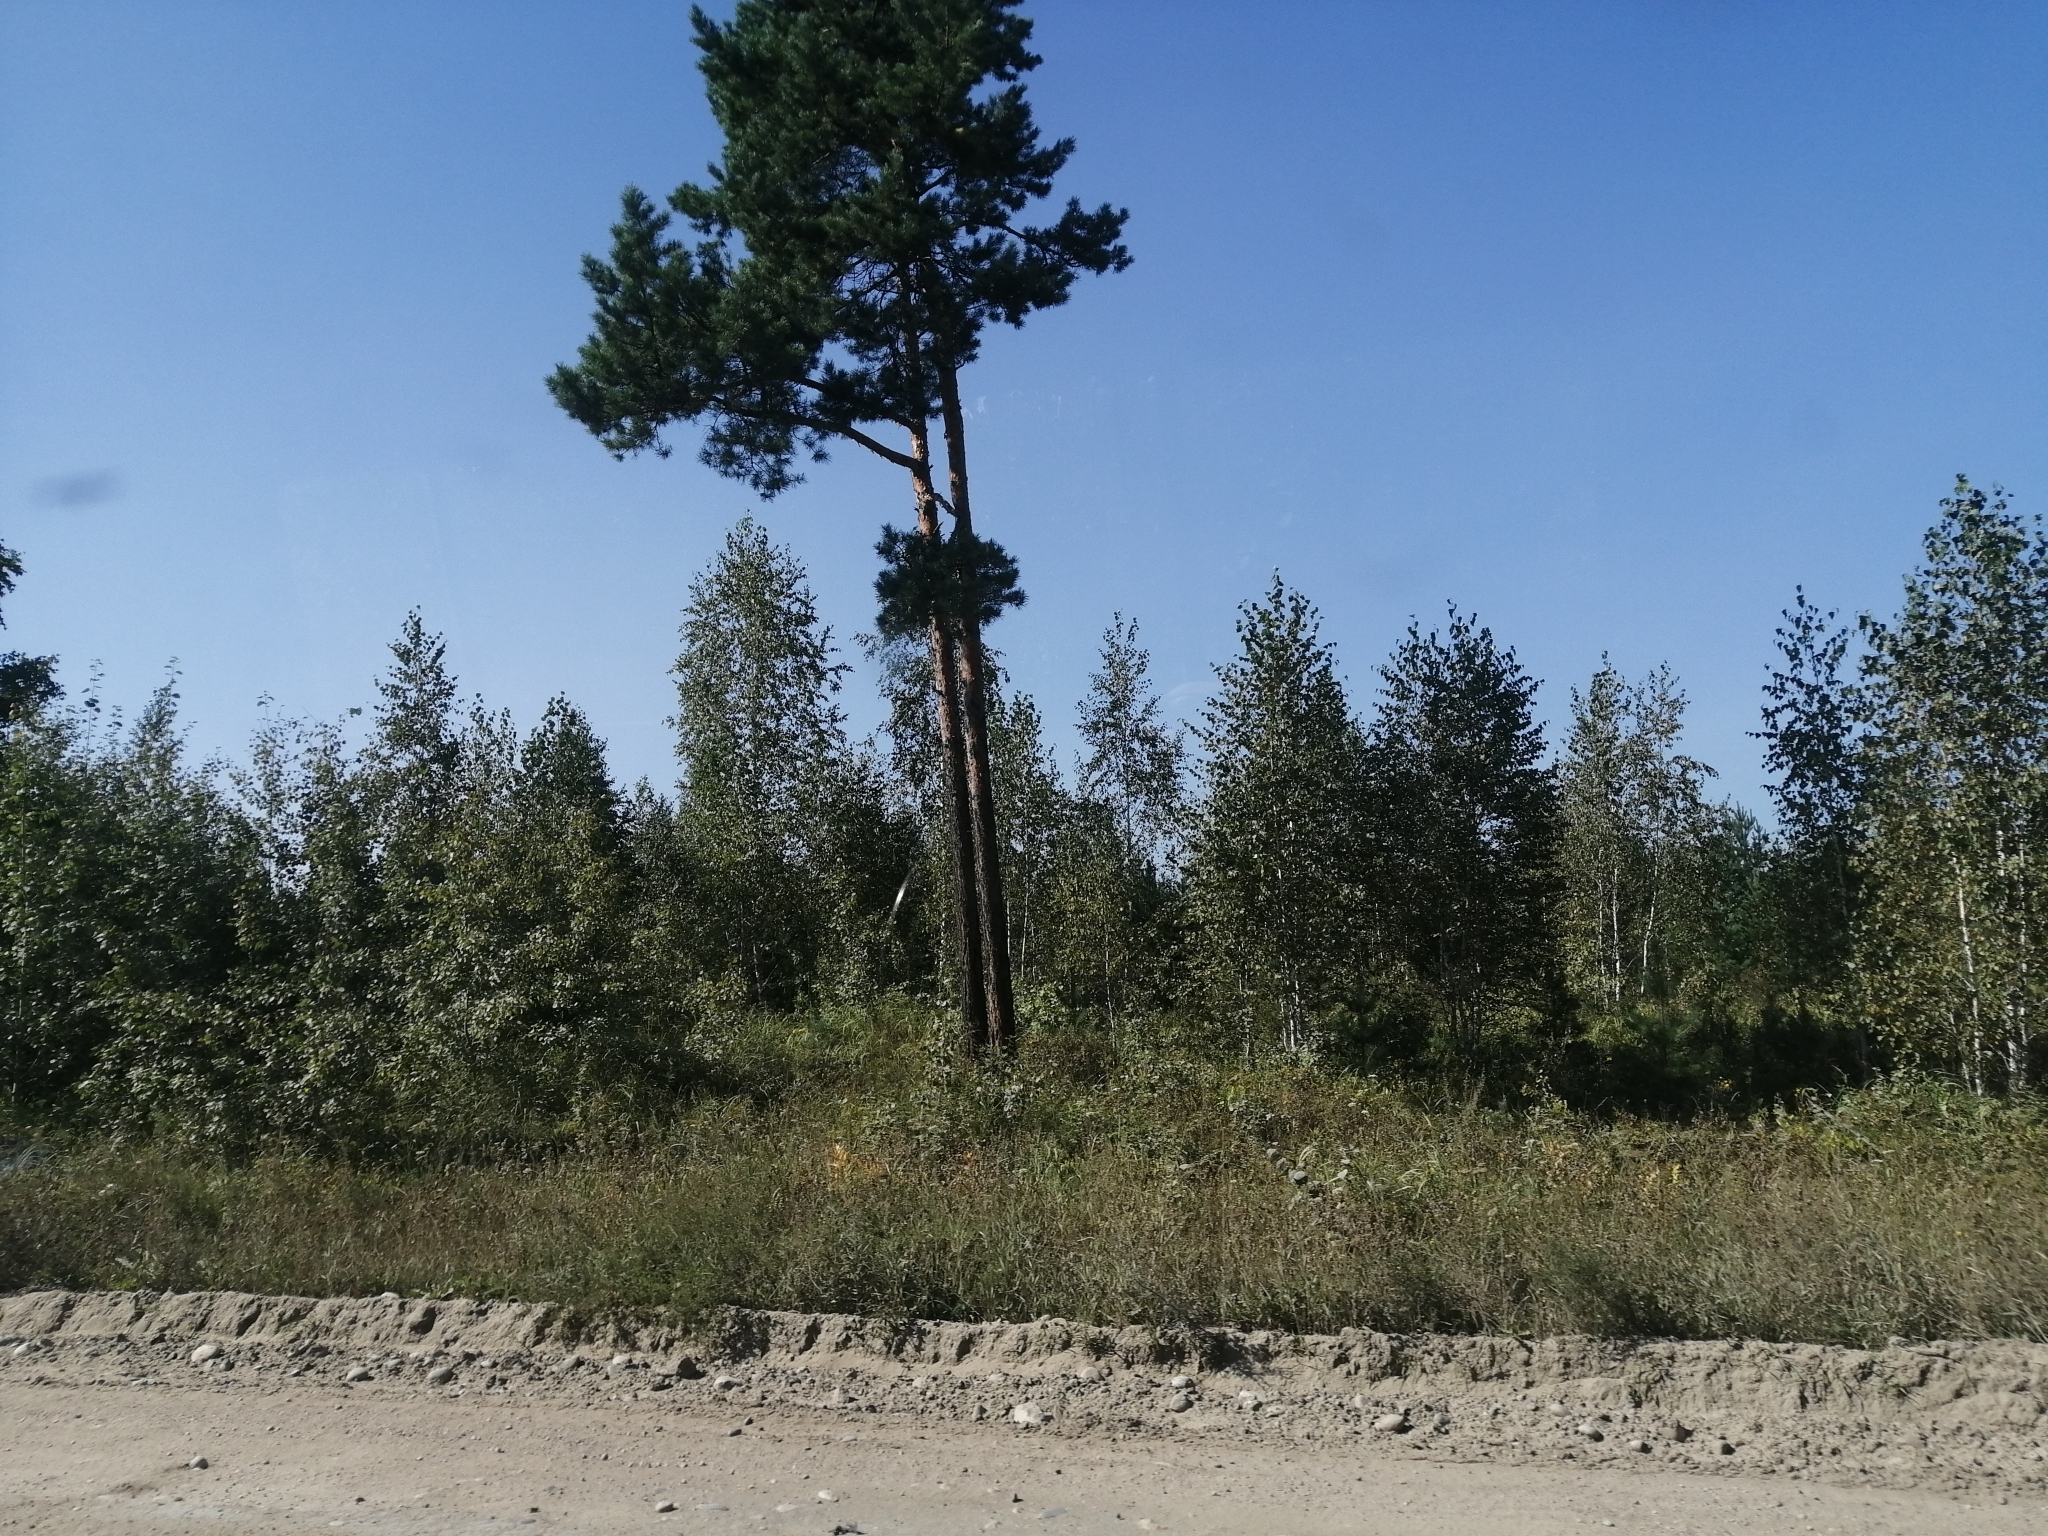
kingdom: Plantae
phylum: Tracheophyta
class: Pinopsida
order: Pinales
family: Pinaceae
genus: Pinus
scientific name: Pinus sylvestris
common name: Scots pine
